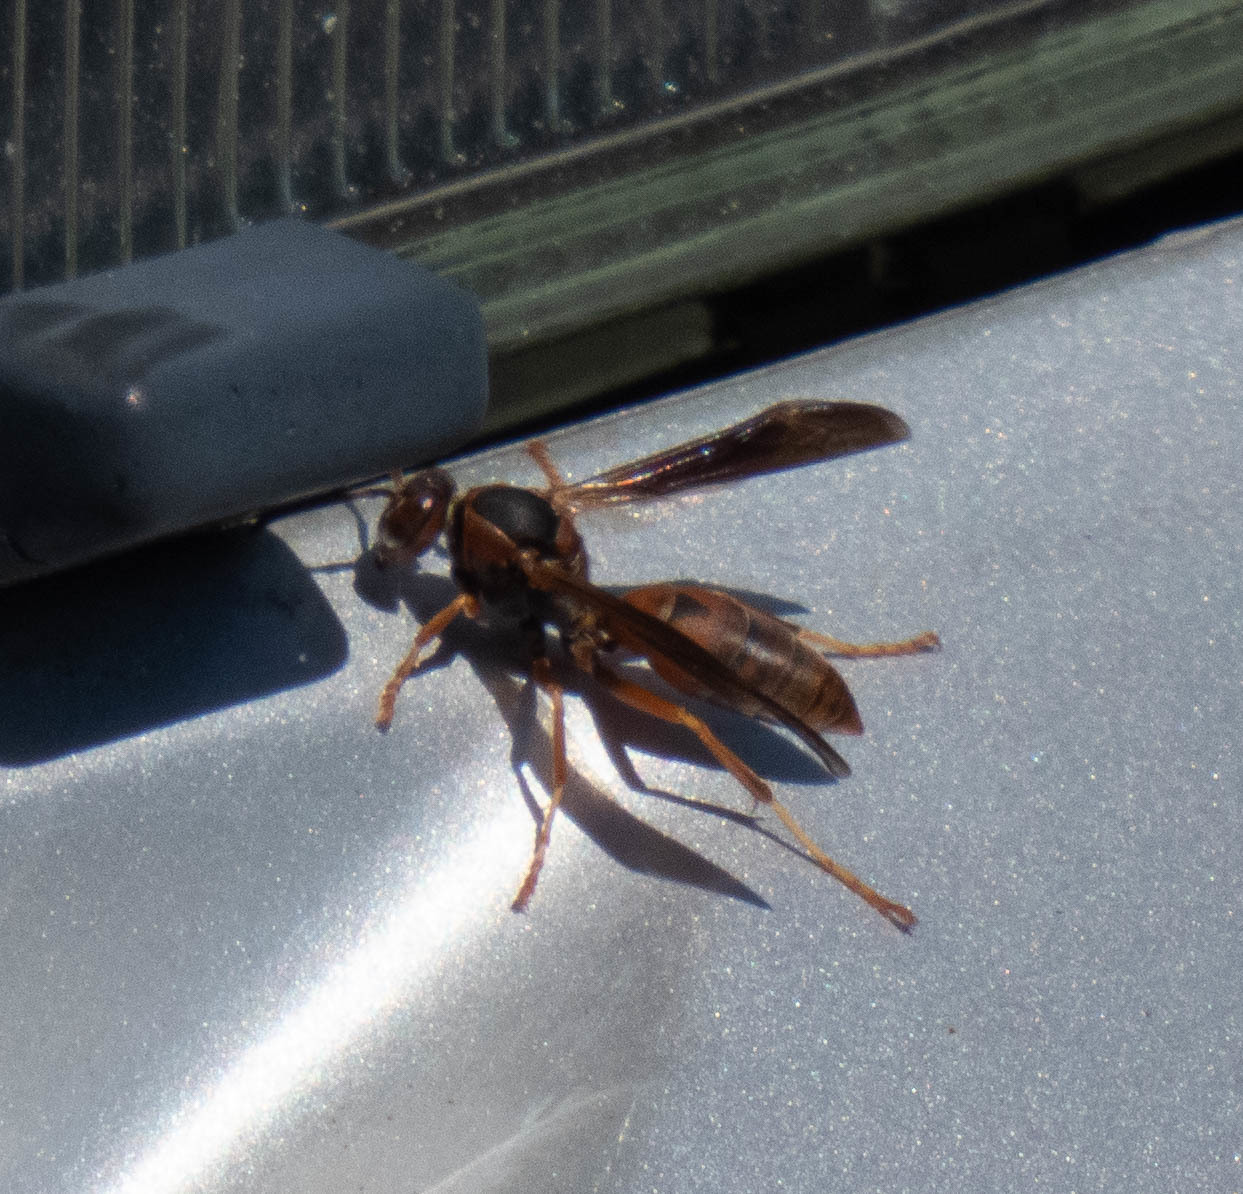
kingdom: Animalia
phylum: Arthropoda
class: Insecta
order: Hymenoptera
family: Eumenidae
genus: Polistes
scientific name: Polistes fuscatus
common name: Dark paper wasp
